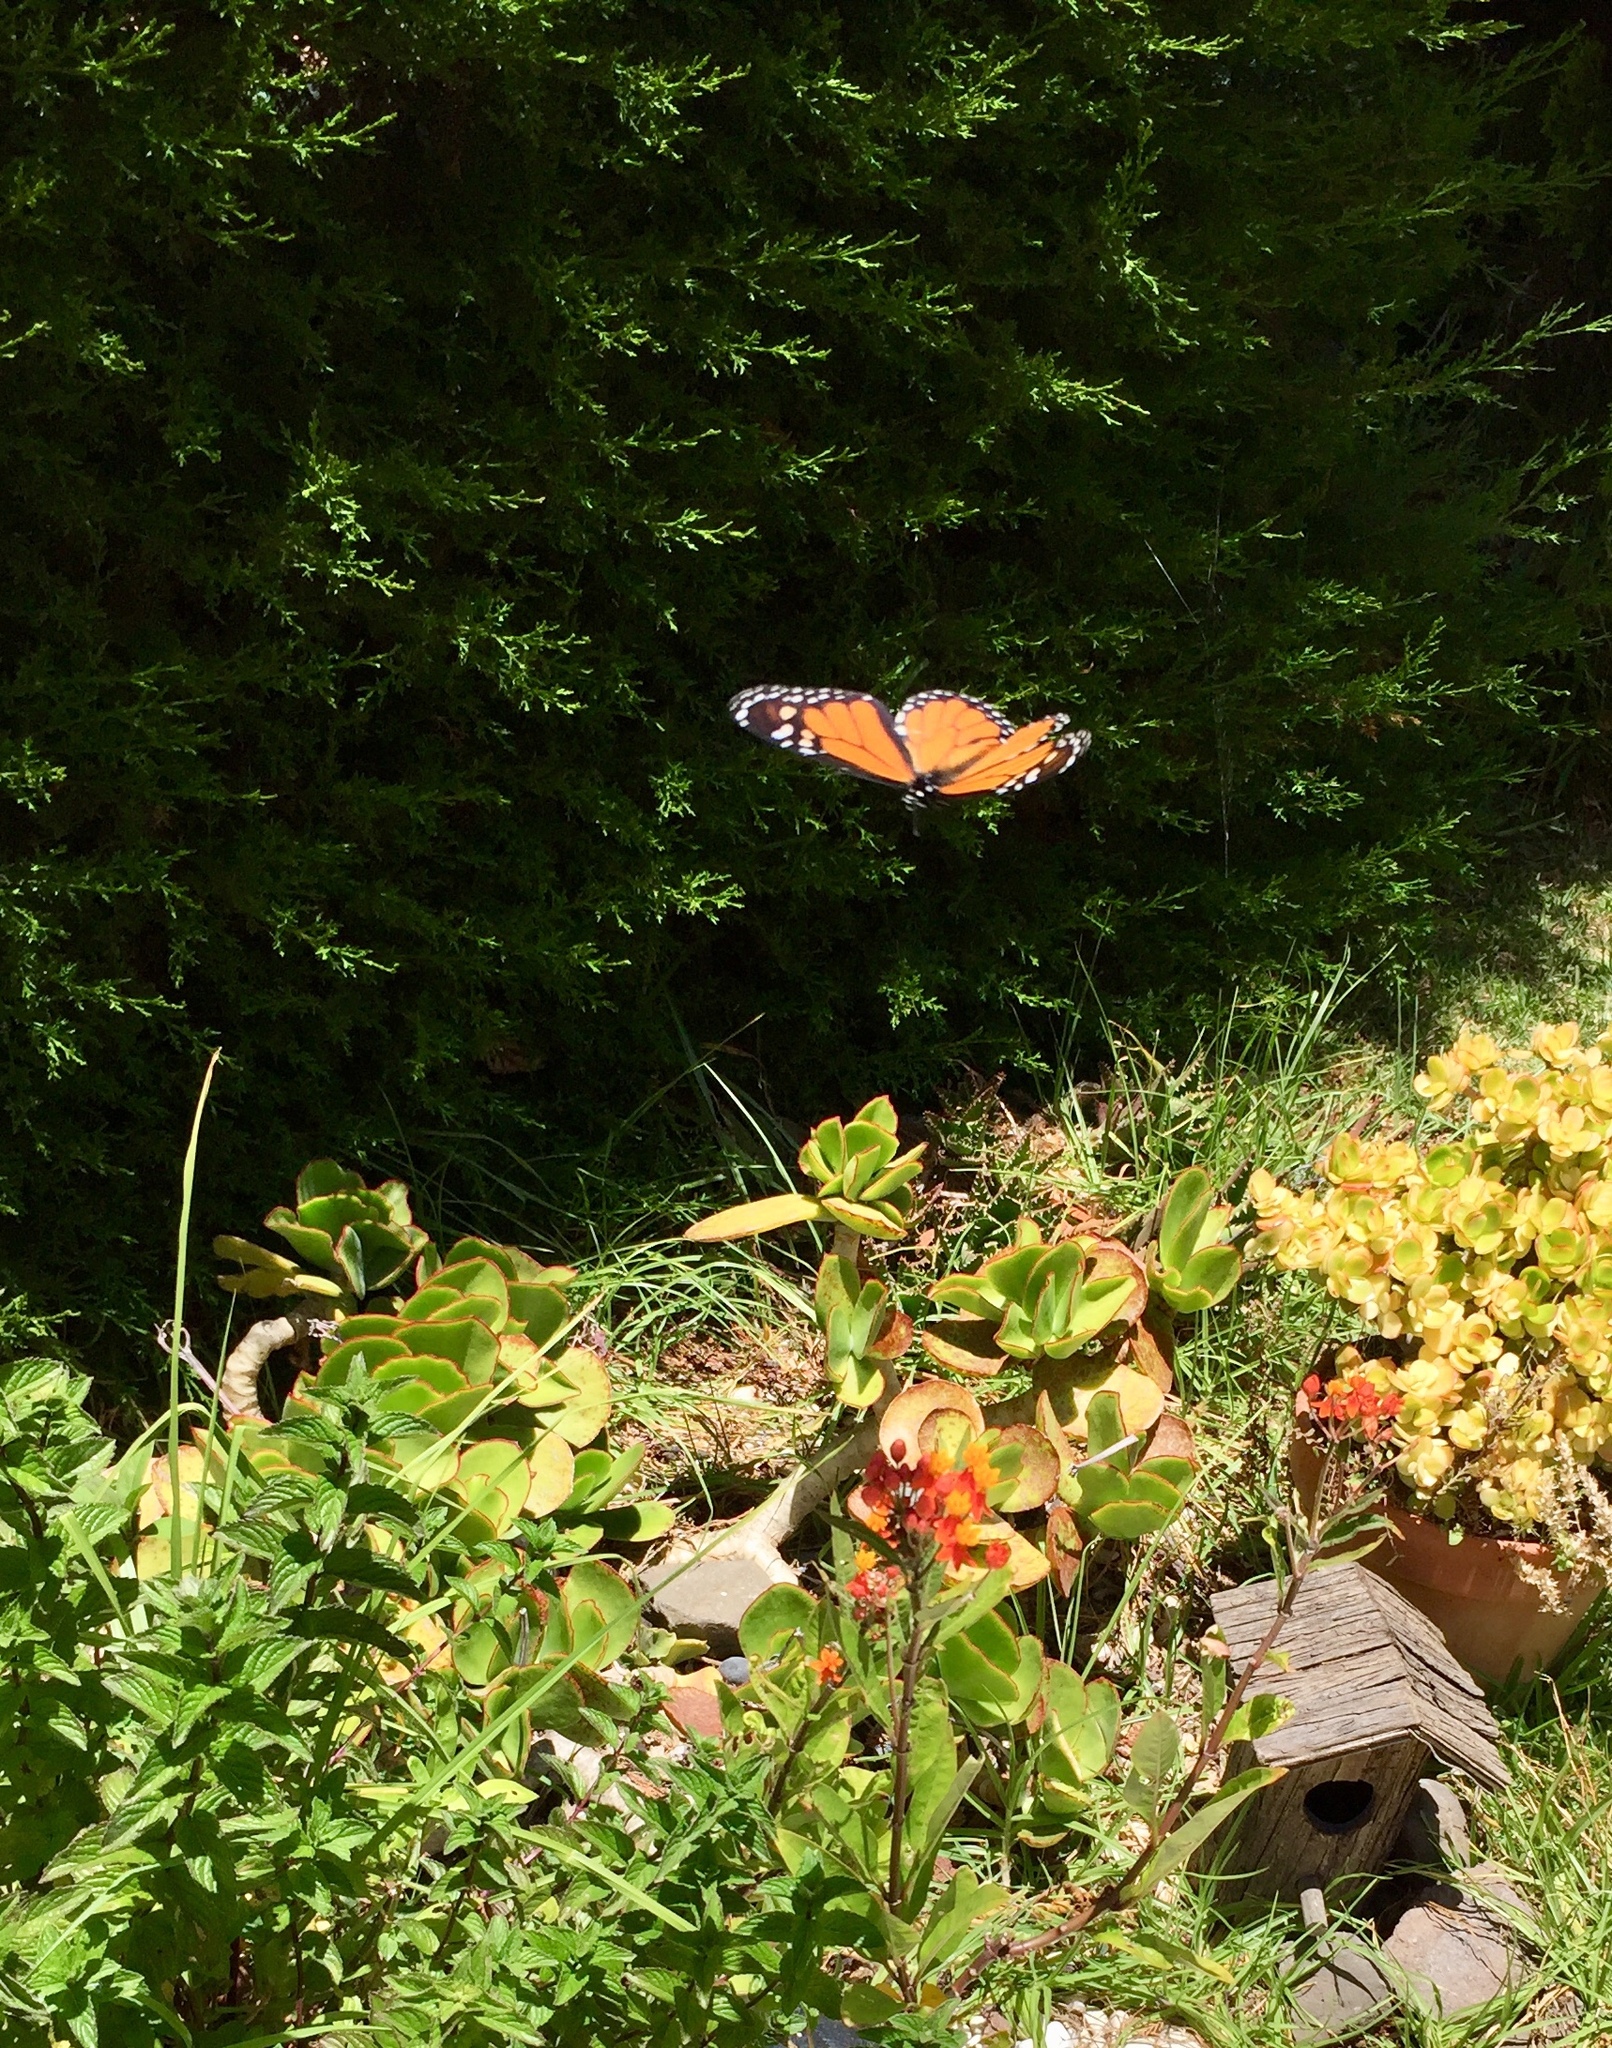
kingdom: Animalia
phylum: Arthropoda
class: Insecta
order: Lepidoptera
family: Nymphalidae
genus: Danaus
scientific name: Danaus plexippus
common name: Monarch
